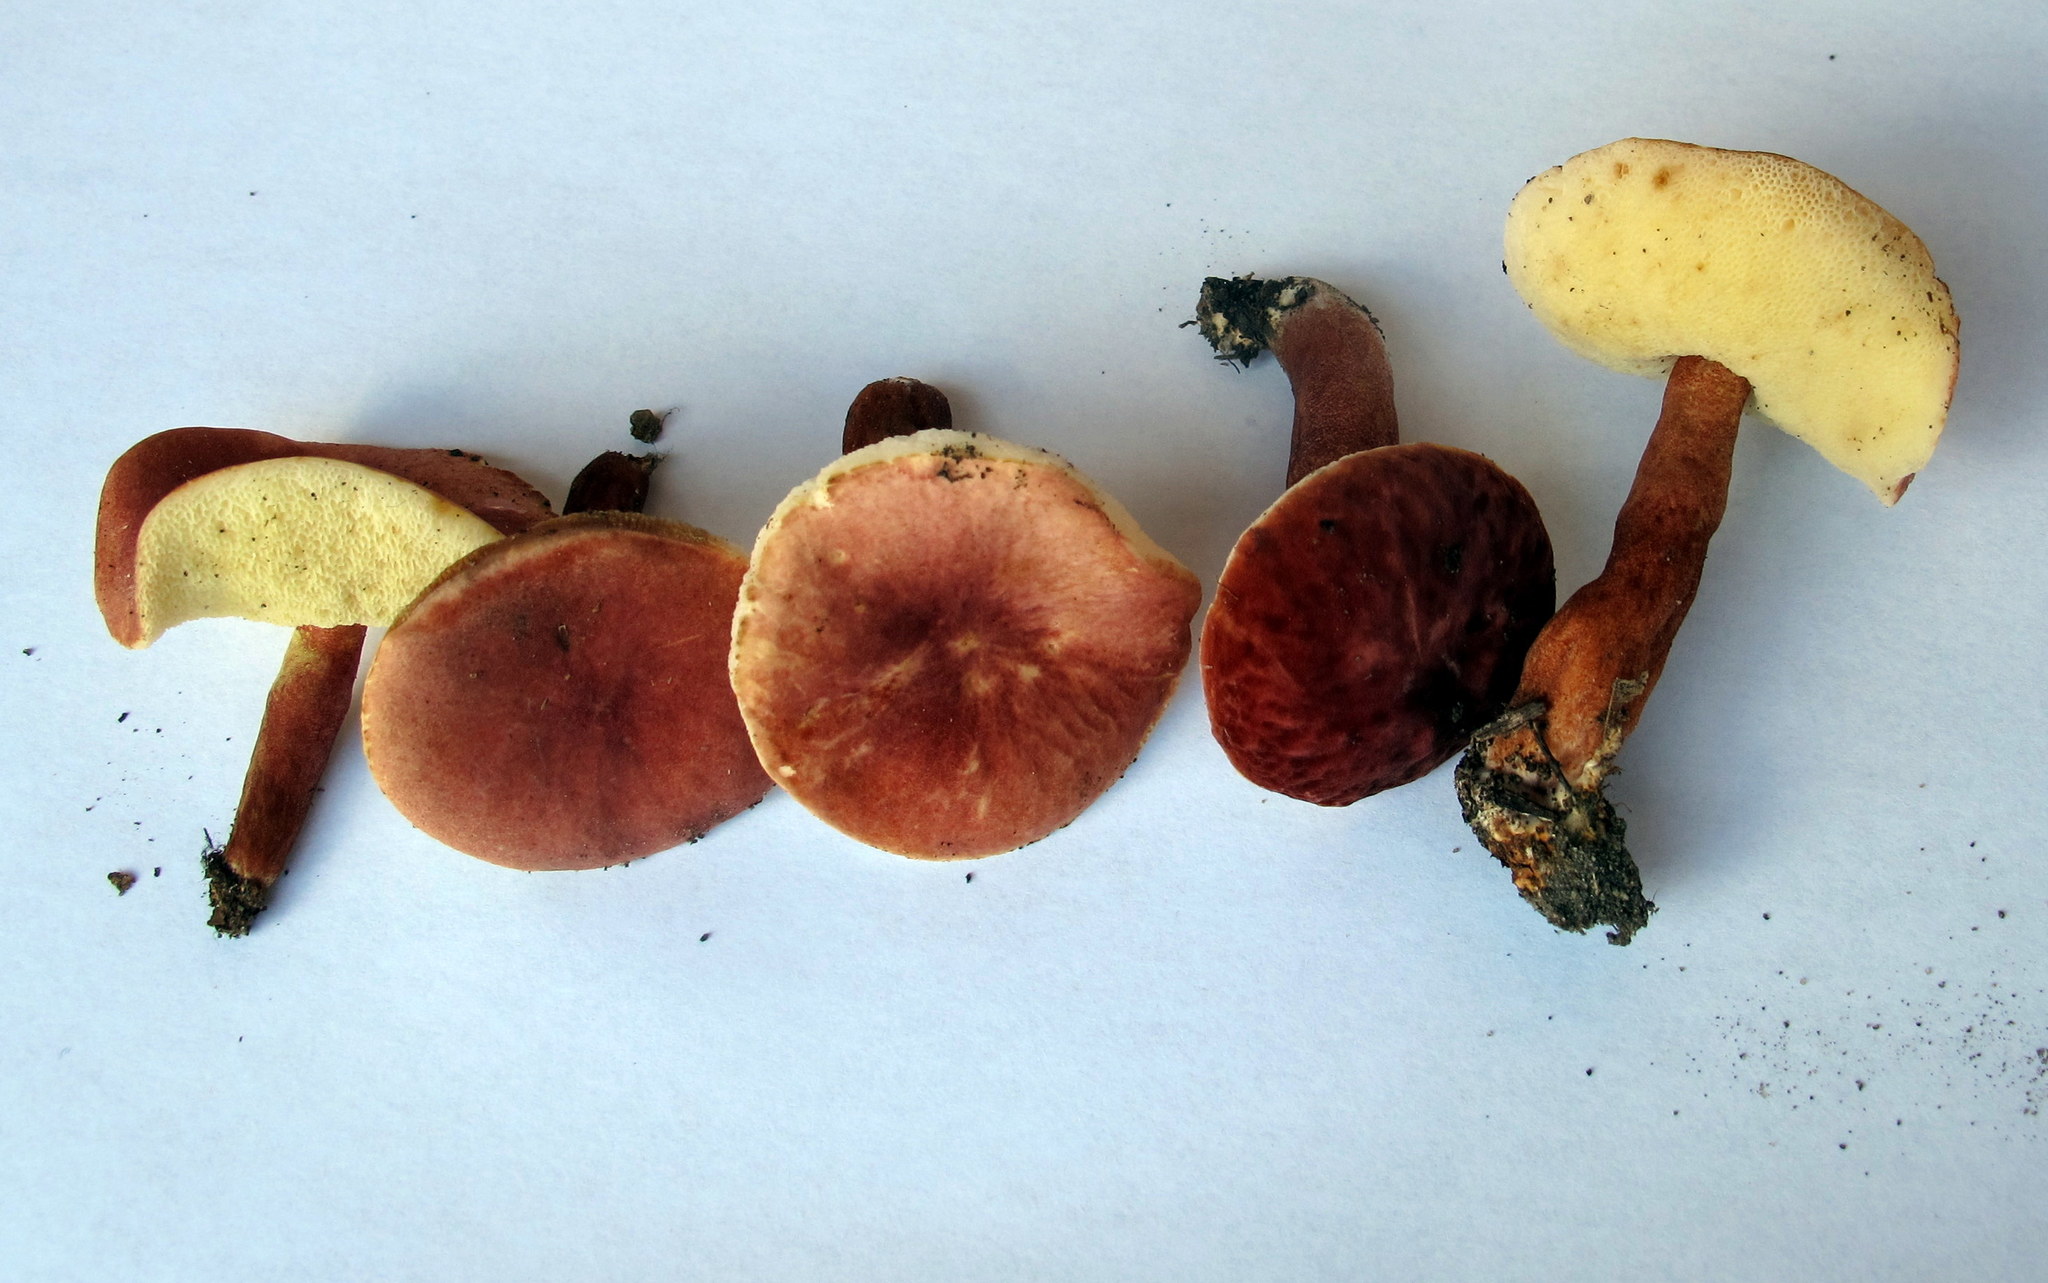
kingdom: Fungi
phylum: Basidiomycota
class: Agaricomycetes
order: Boletales
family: Gyroporaceae
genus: Gyroporus
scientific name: Gyroporus purpurinus
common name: Red gyroporus
